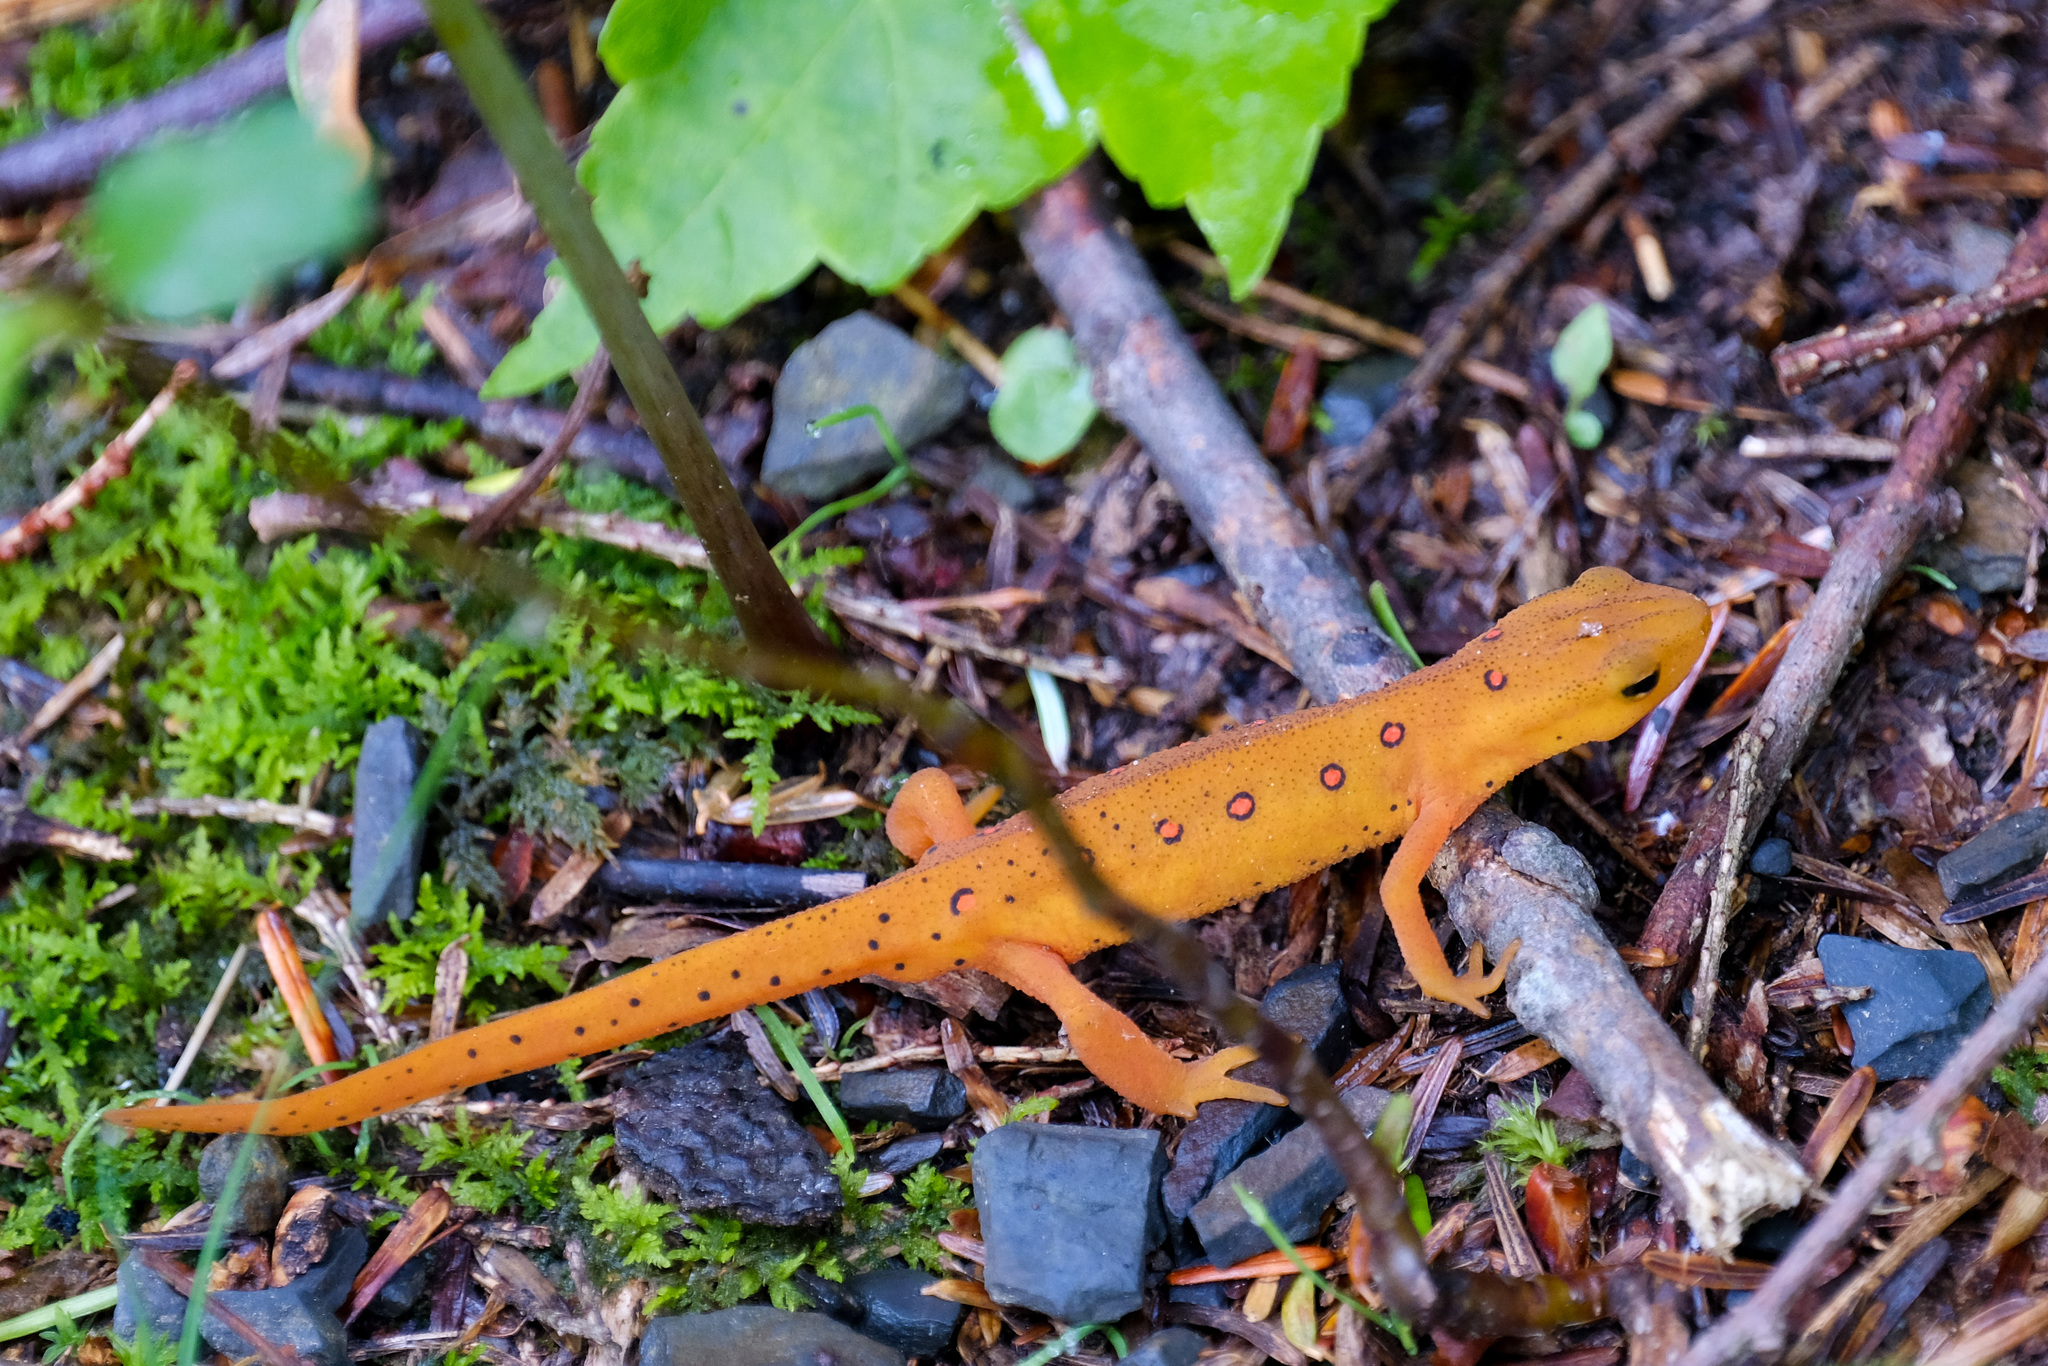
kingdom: Animalia
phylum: Chordata
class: Amphibia
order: Caudata
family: Salamandridae
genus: Notophthalmus
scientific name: Notophthalmus viridescens
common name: Eastern newt
